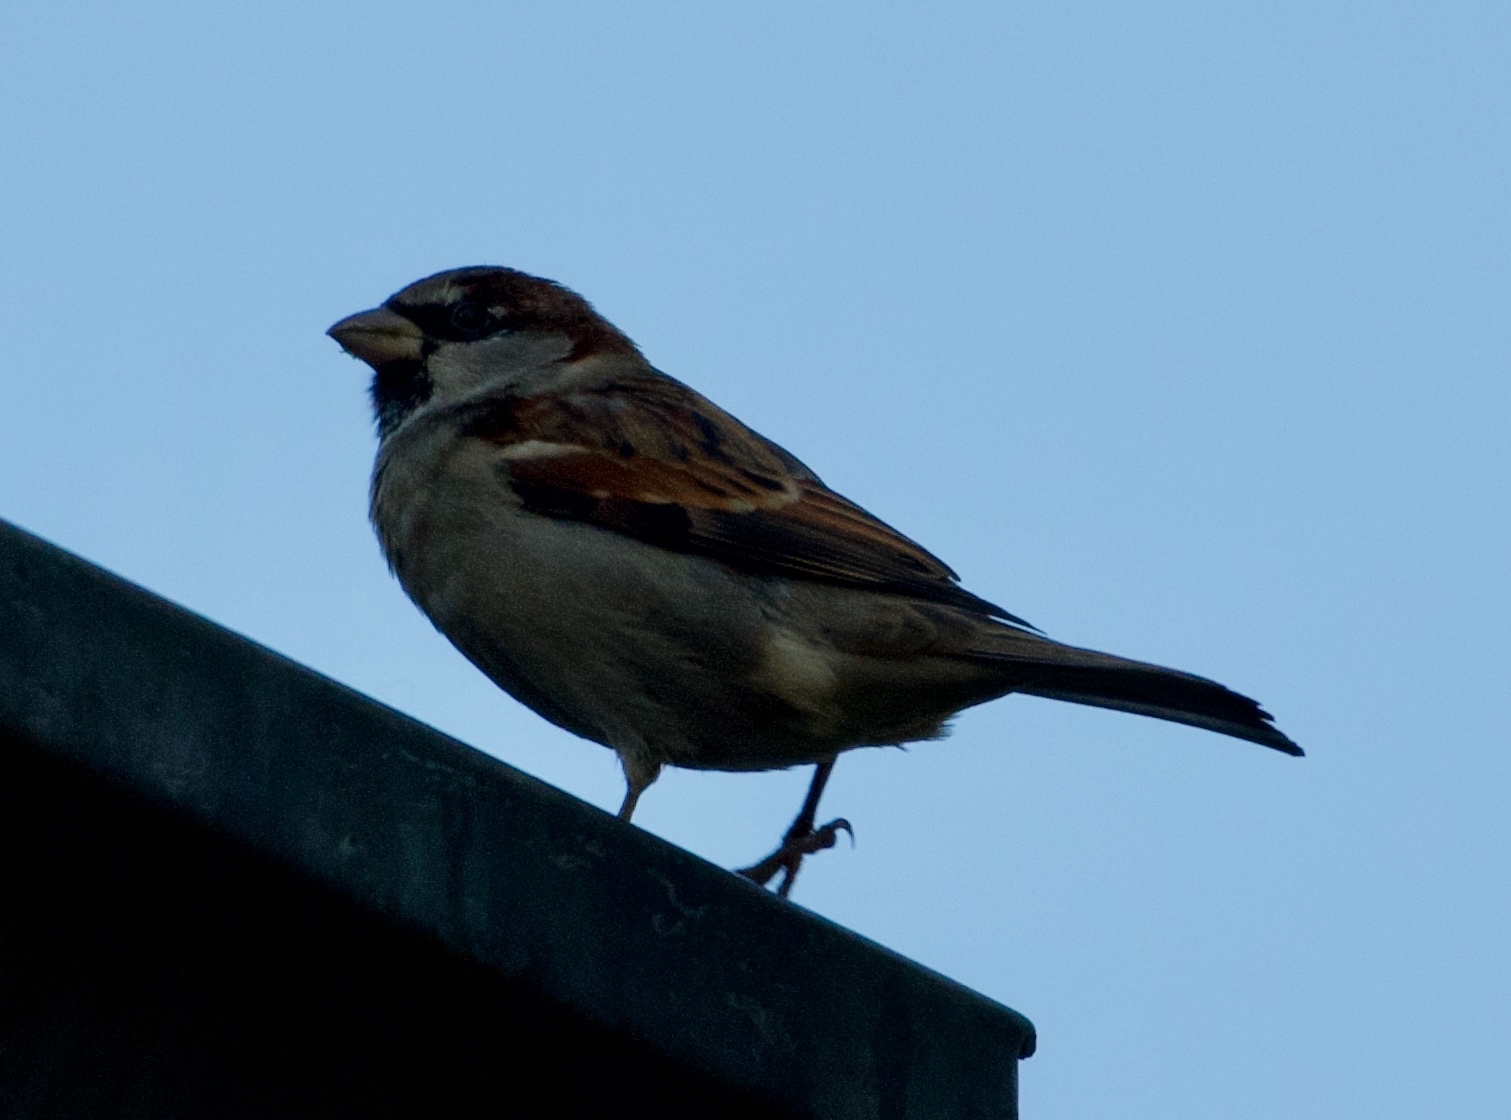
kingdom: Animalia
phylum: Chordata
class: Aves
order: Passeriformes
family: Passeridae
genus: Passer
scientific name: Passer domesticus
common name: House sparrow
